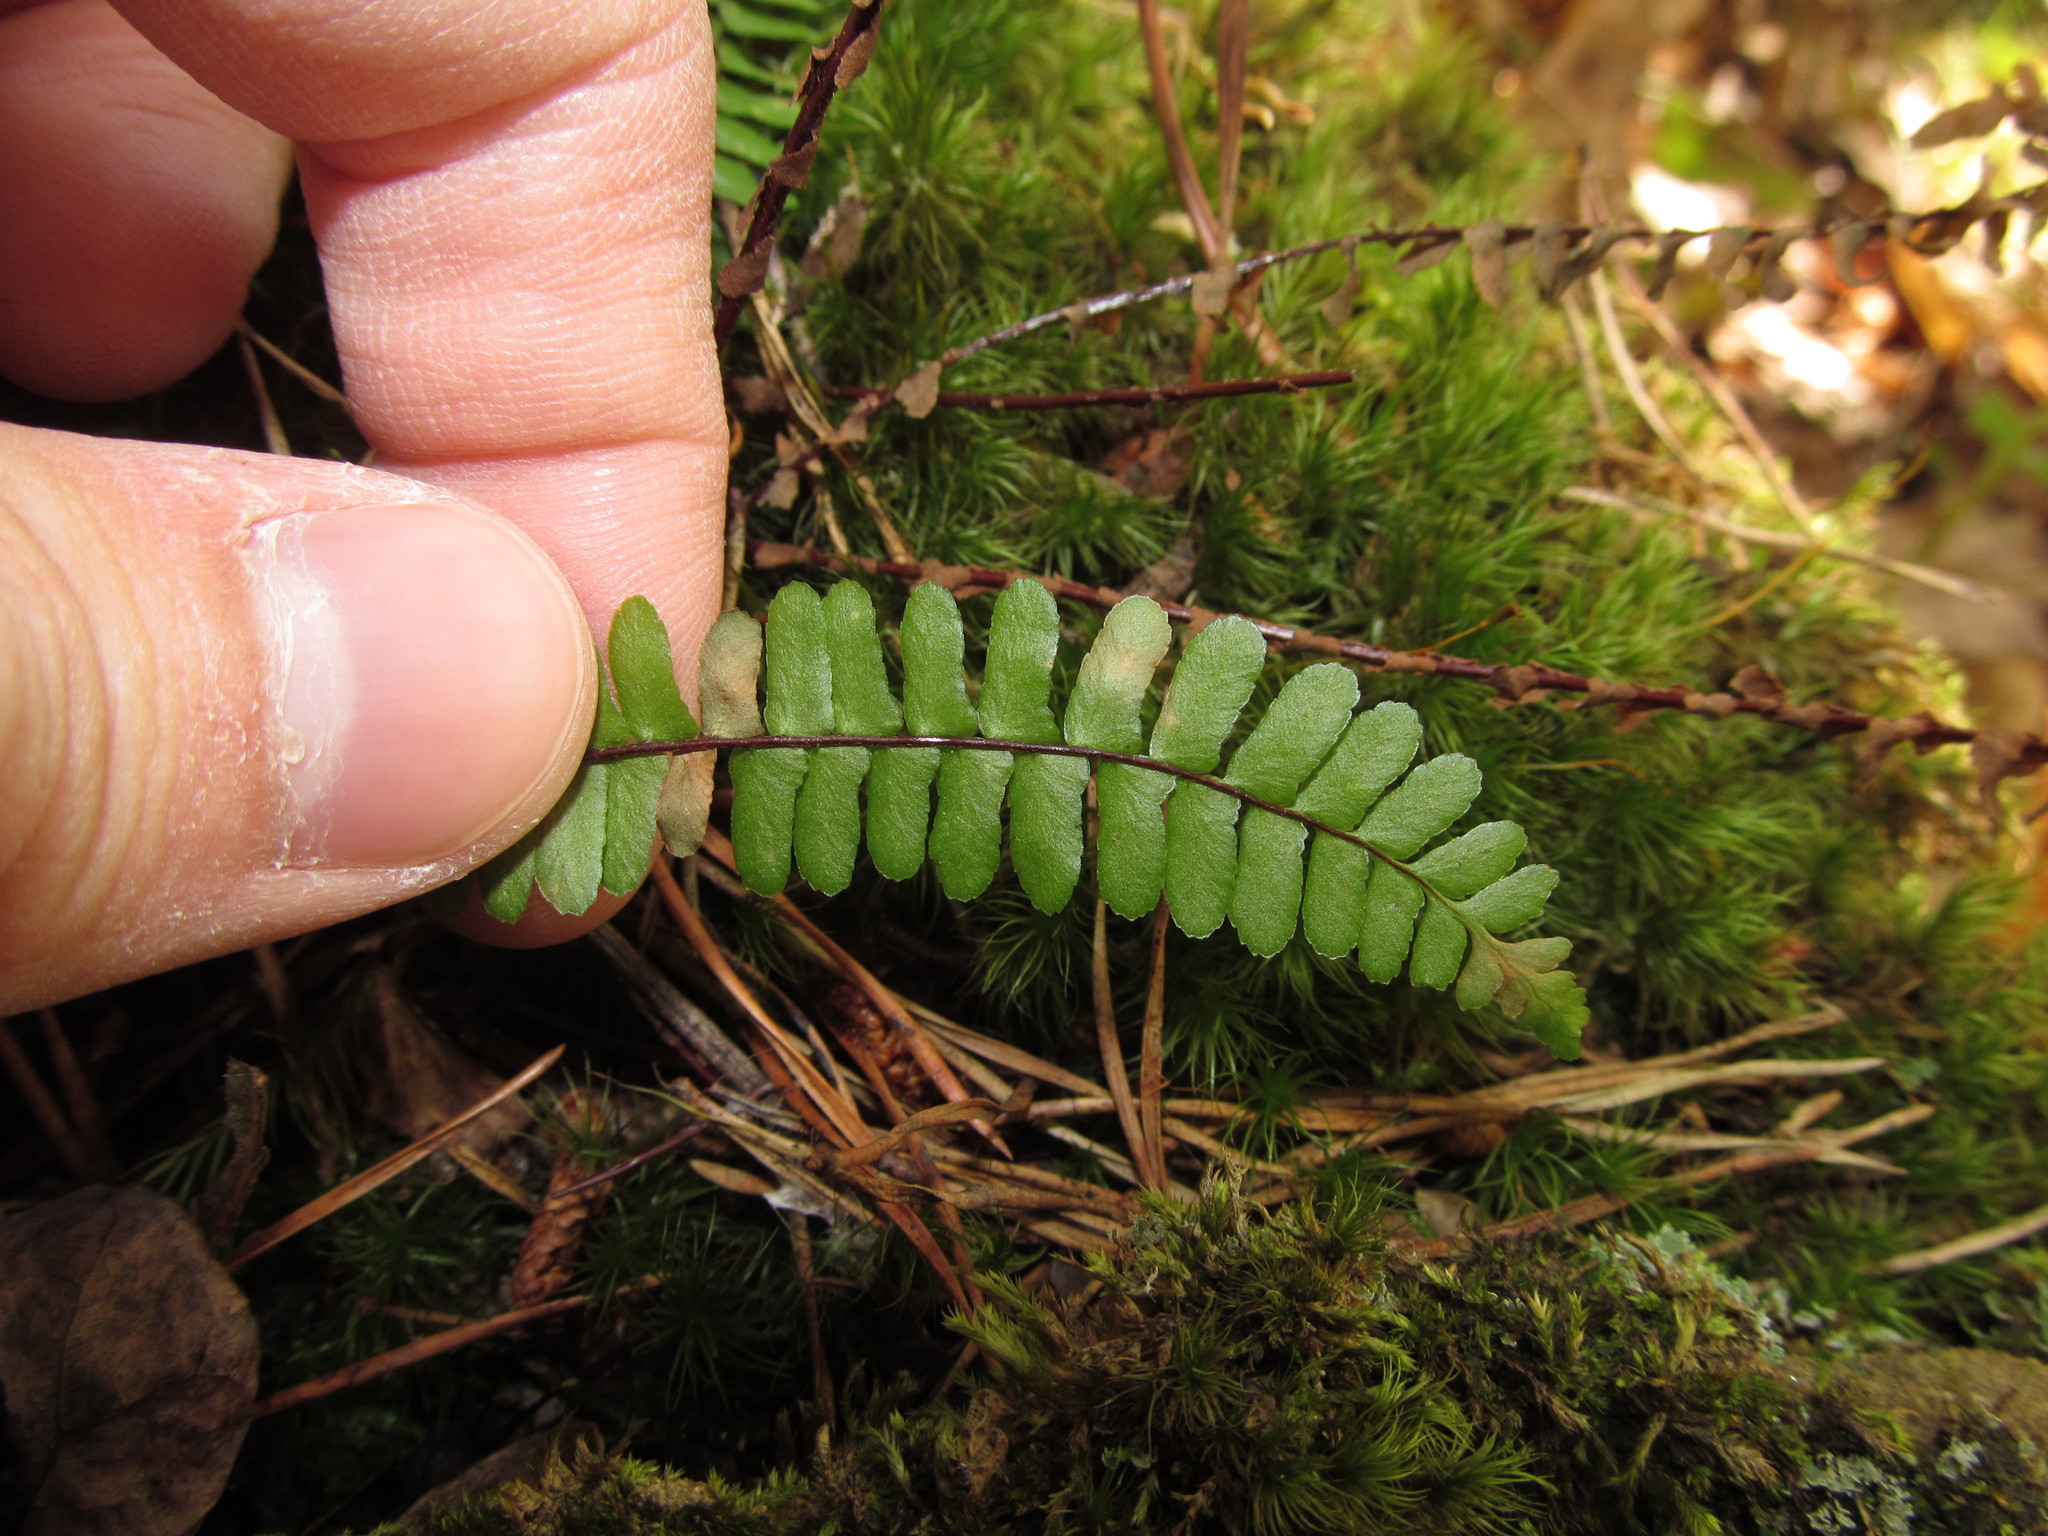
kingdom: Plantae
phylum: Tracheophyta
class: Polypodiopsida
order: Polypodiales
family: Aspleniaceae
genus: Asplenium
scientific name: Asplenium platyneuron
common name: Ebony spleenwort
